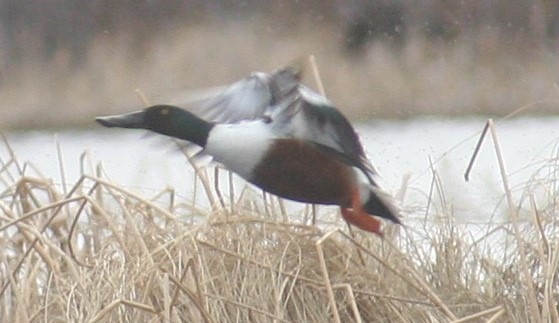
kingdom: Animalia
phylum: Chordata
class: Aves
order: Anseriformes
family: Anatidae
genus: Spatula
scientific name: Spatula clypeata
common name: Northern shoveler
